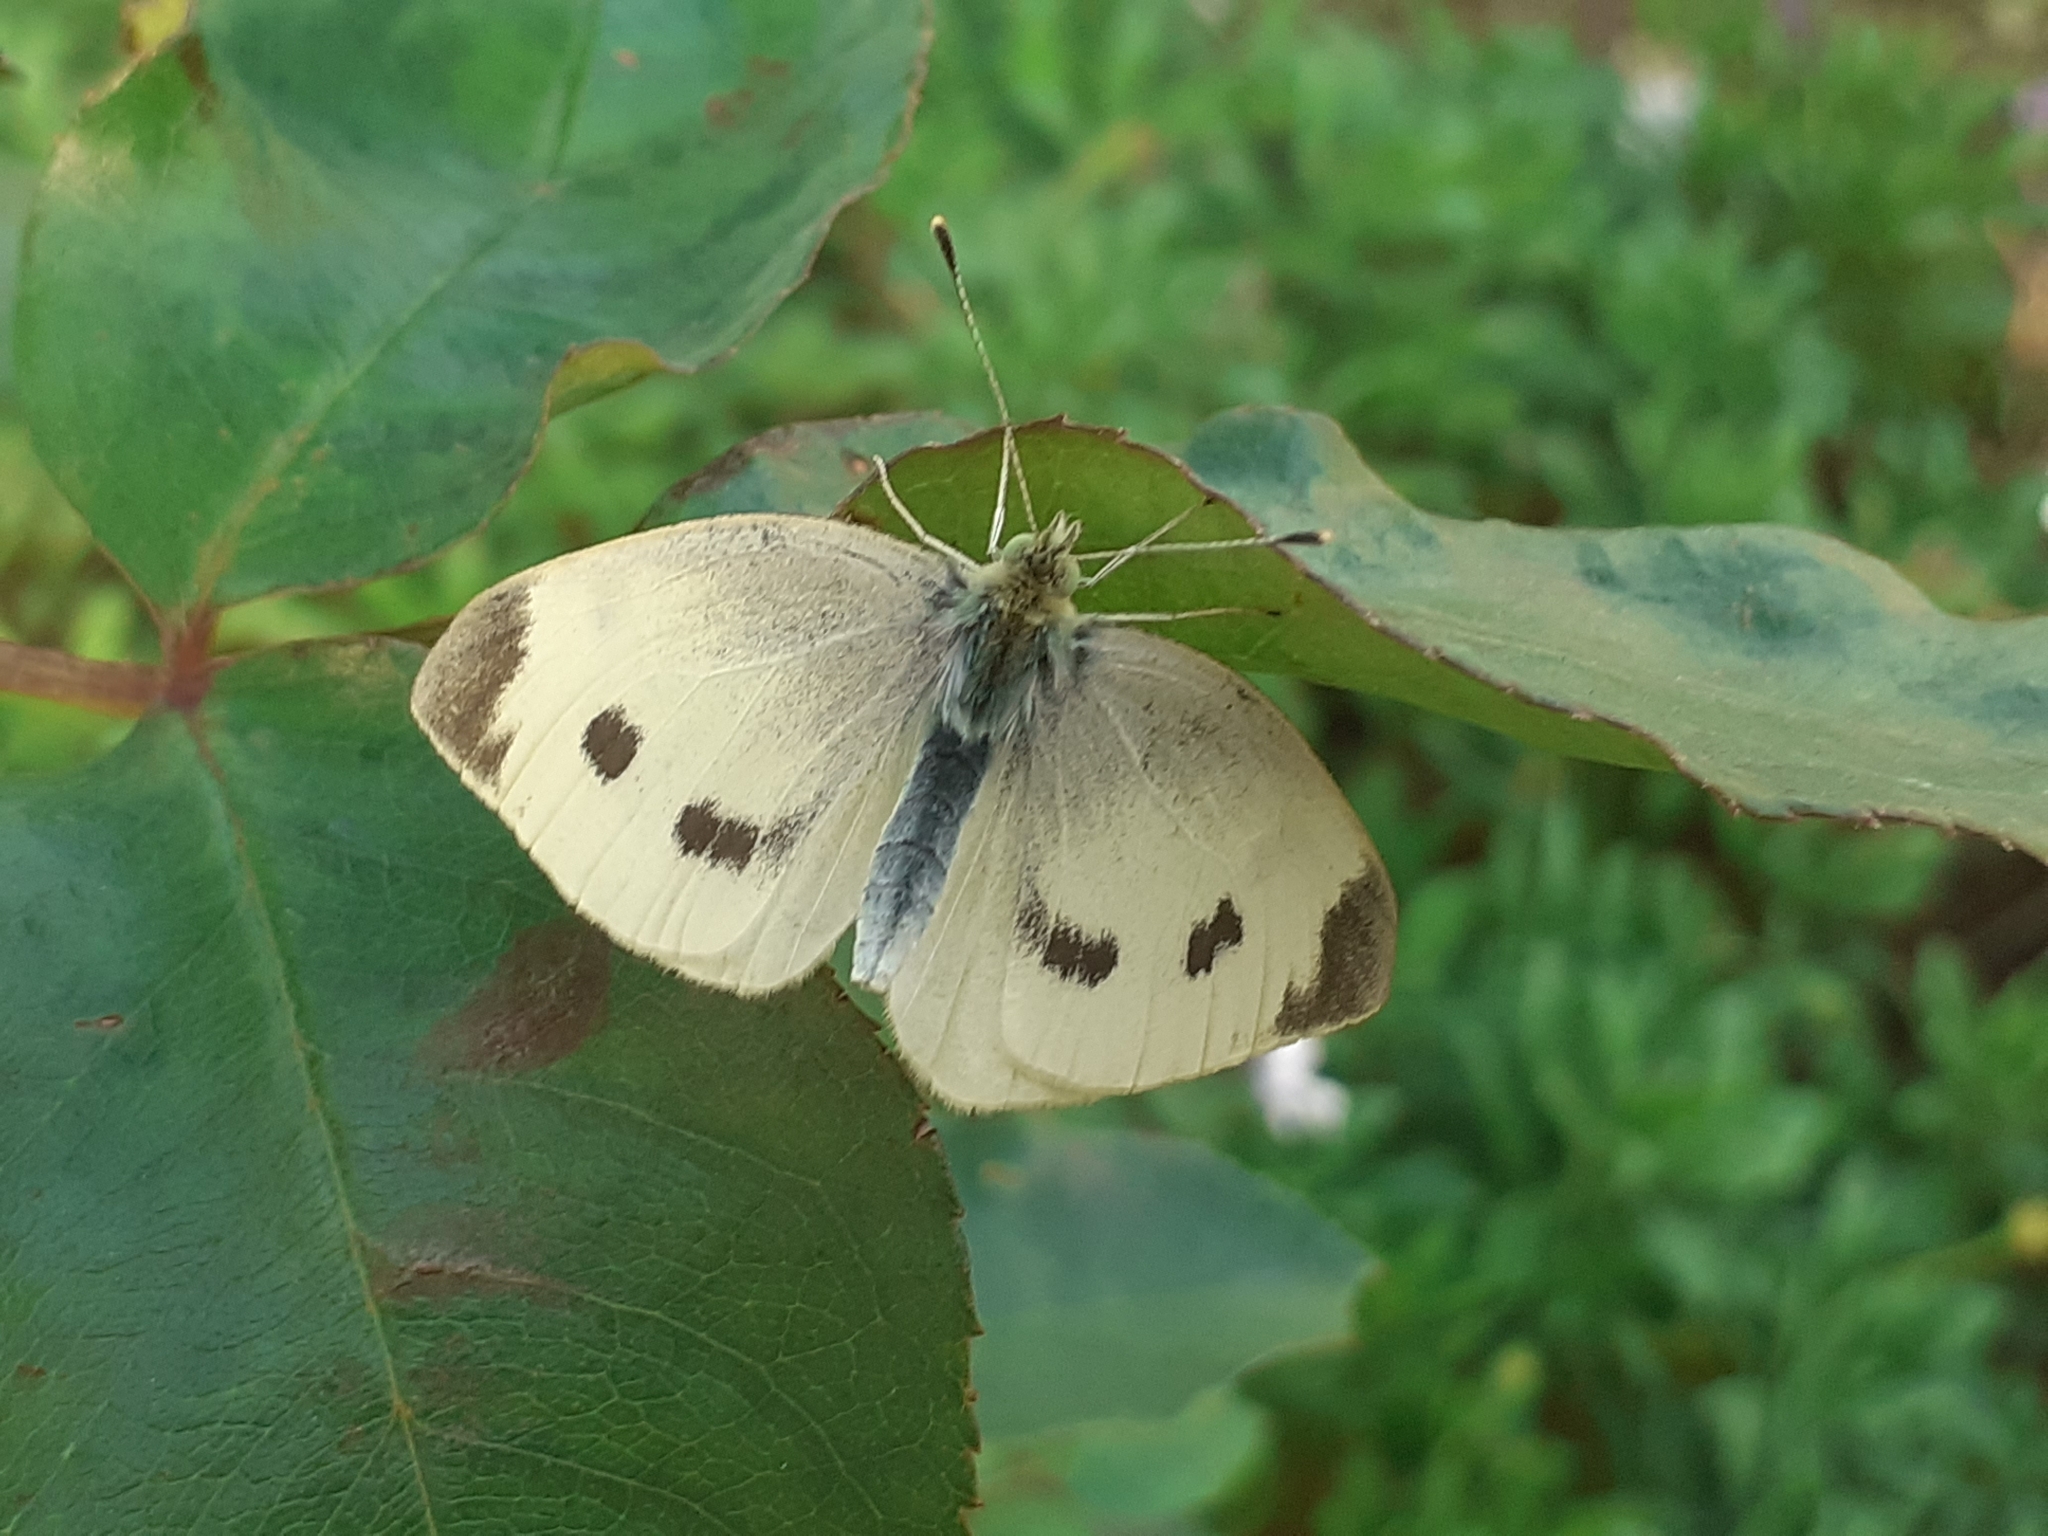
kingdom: Animalia
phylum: Arthropoda
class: Insecta
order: Lepidoptera
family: Pieridae
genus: Pieris
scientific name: Pieris rapae
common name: Small white
